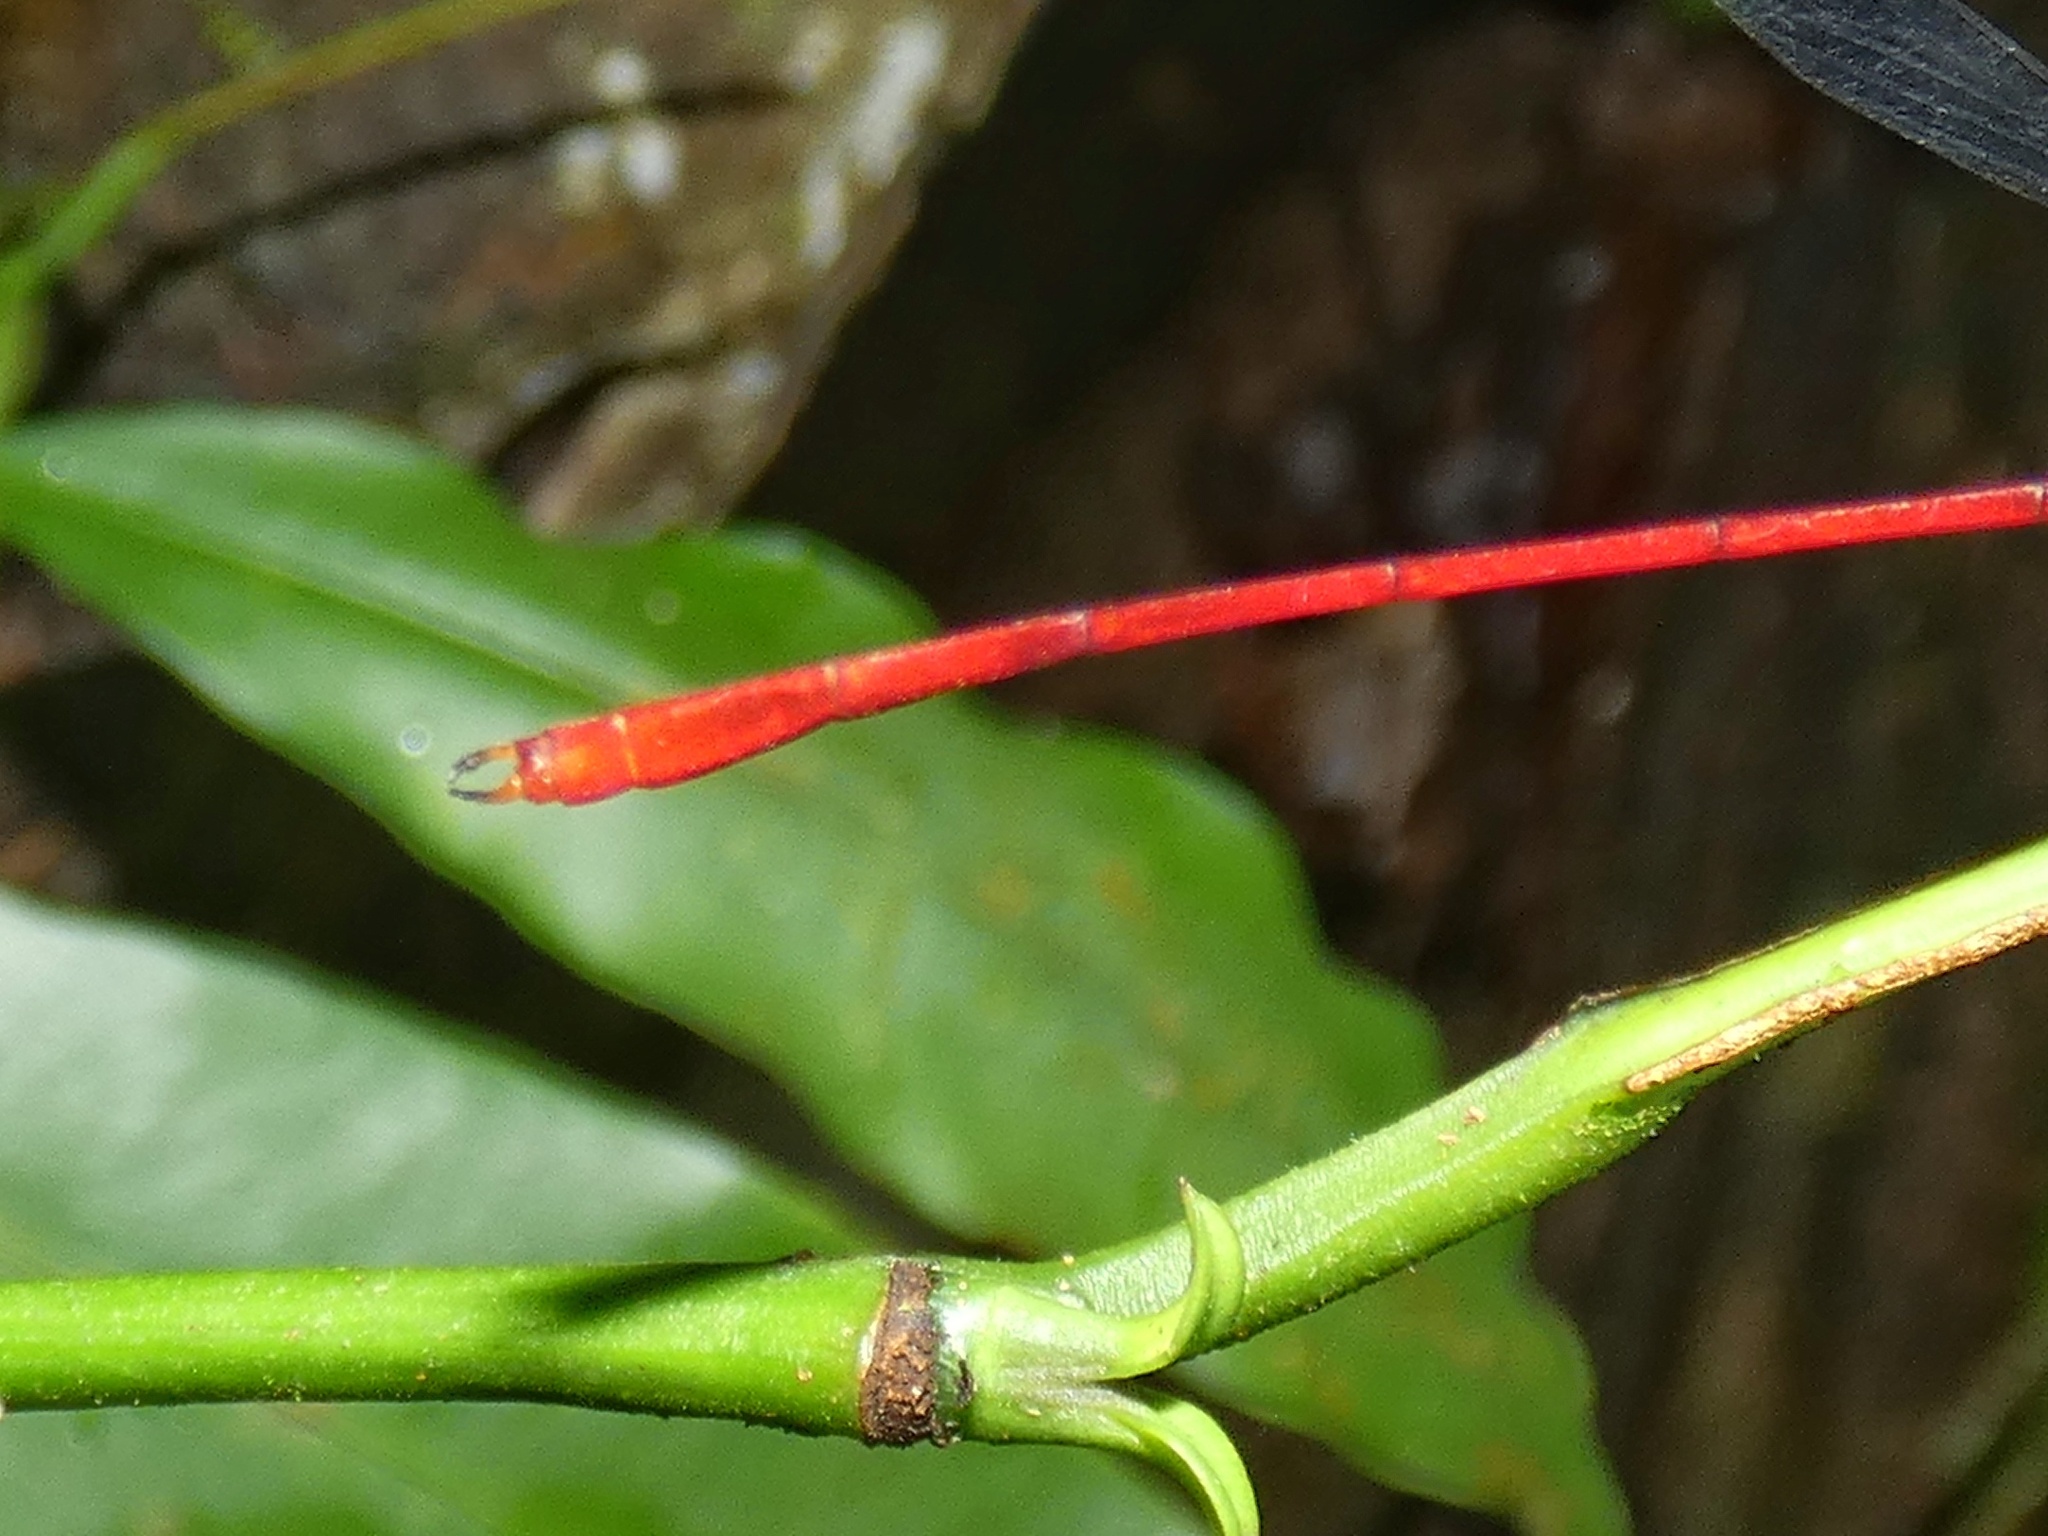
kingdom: Animalia
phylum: Arthropoda
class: Insecta
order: Odonata
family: Heteragrionidae
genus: Heteragrion
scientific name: Heteragrion erythrogastrum
